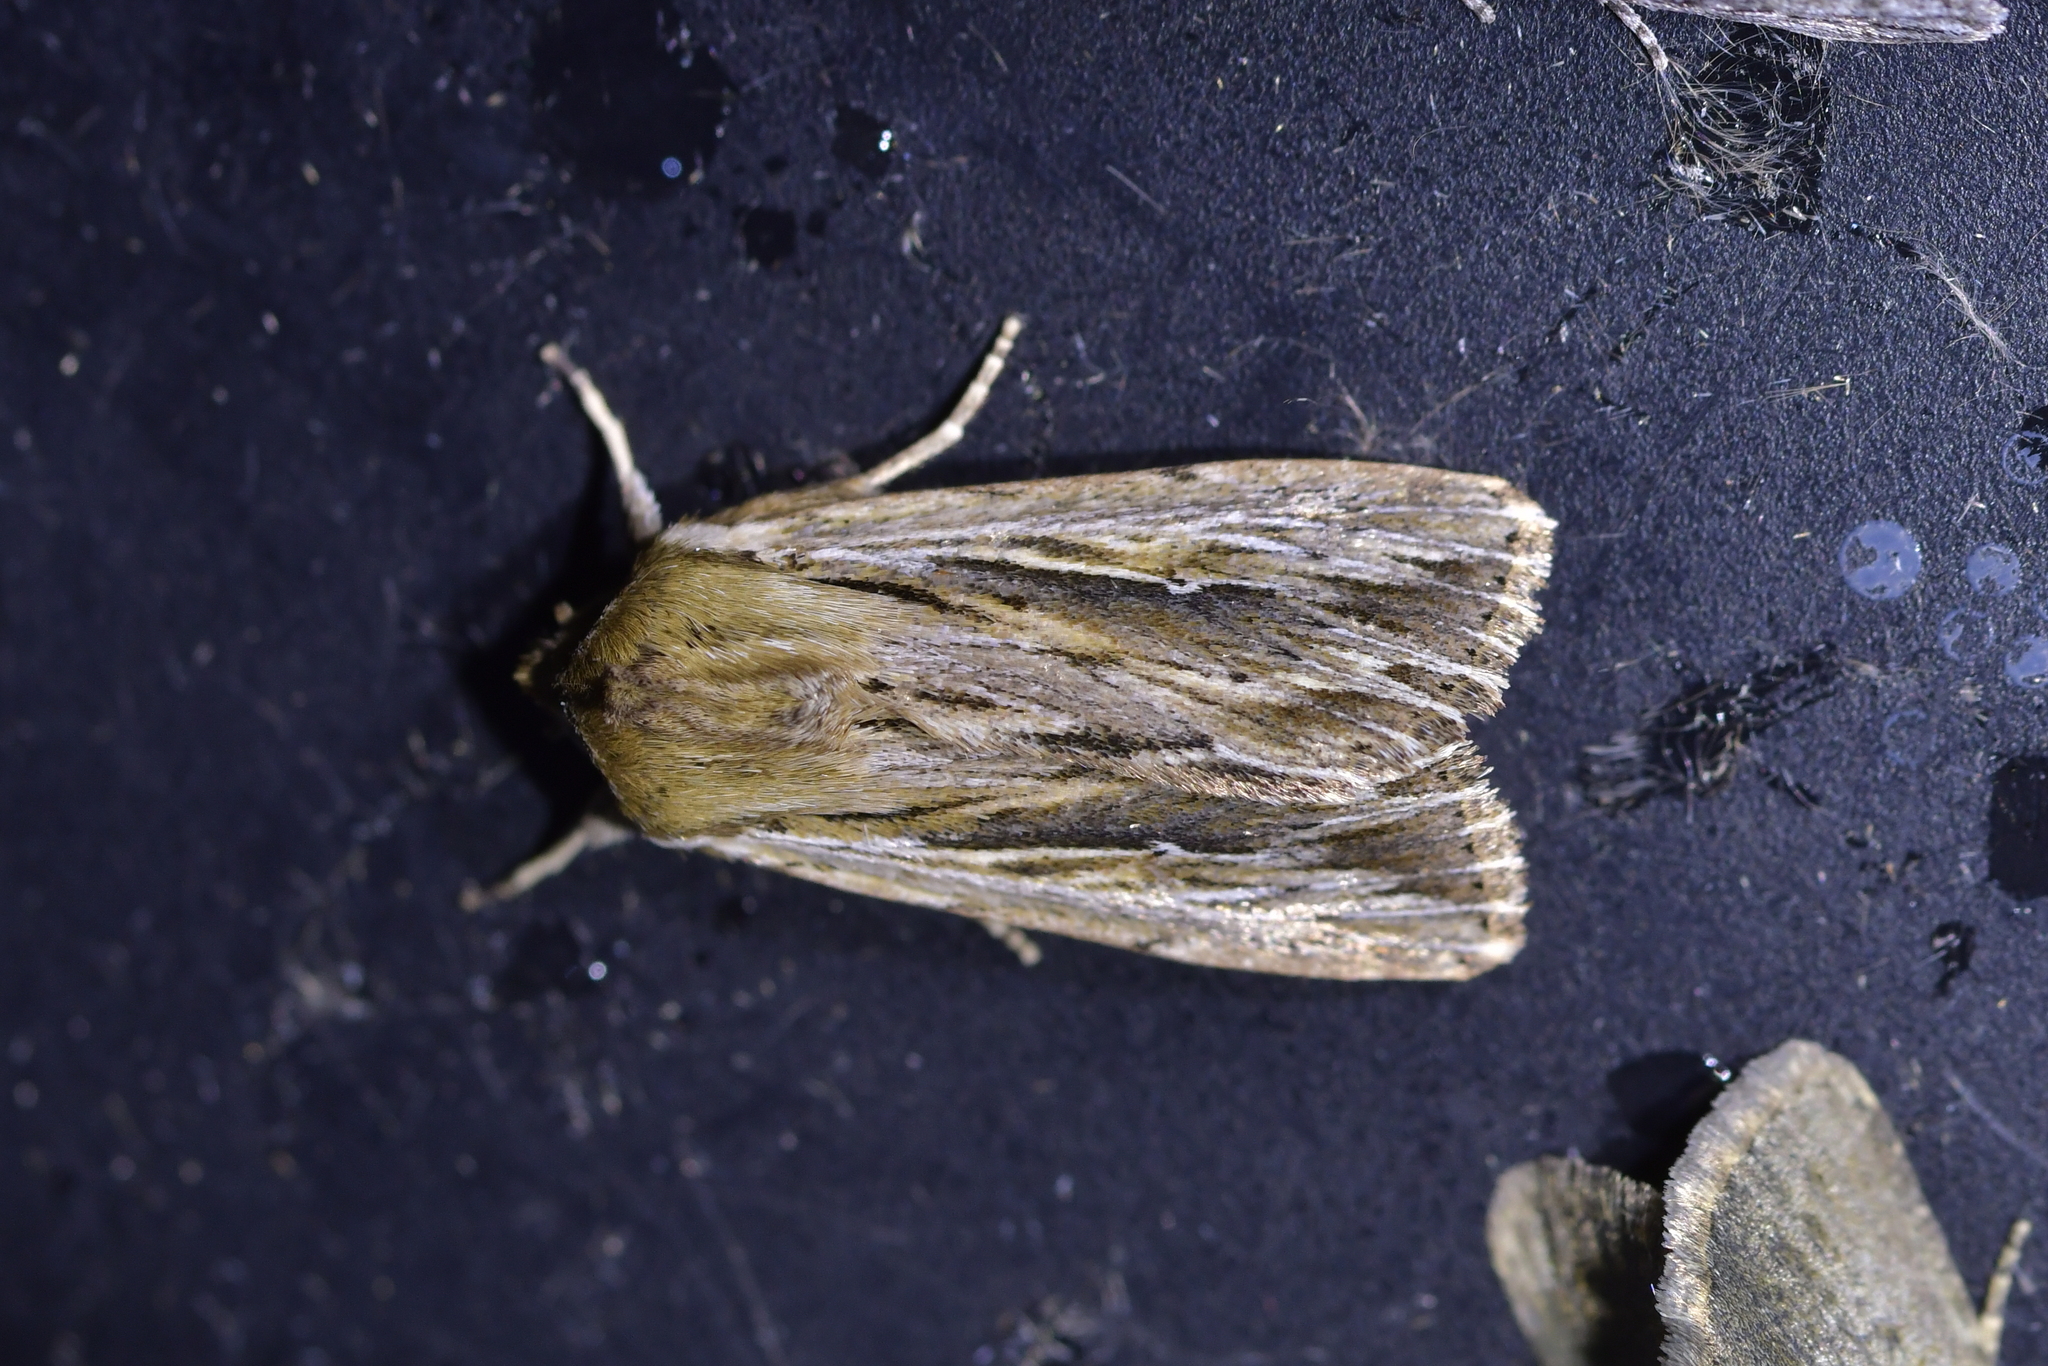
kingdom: Animalia
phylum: Arthropoda
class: Insecta
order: Lepidoptera
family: Noctuidae
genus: Persectania
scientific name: Persectania aversa
